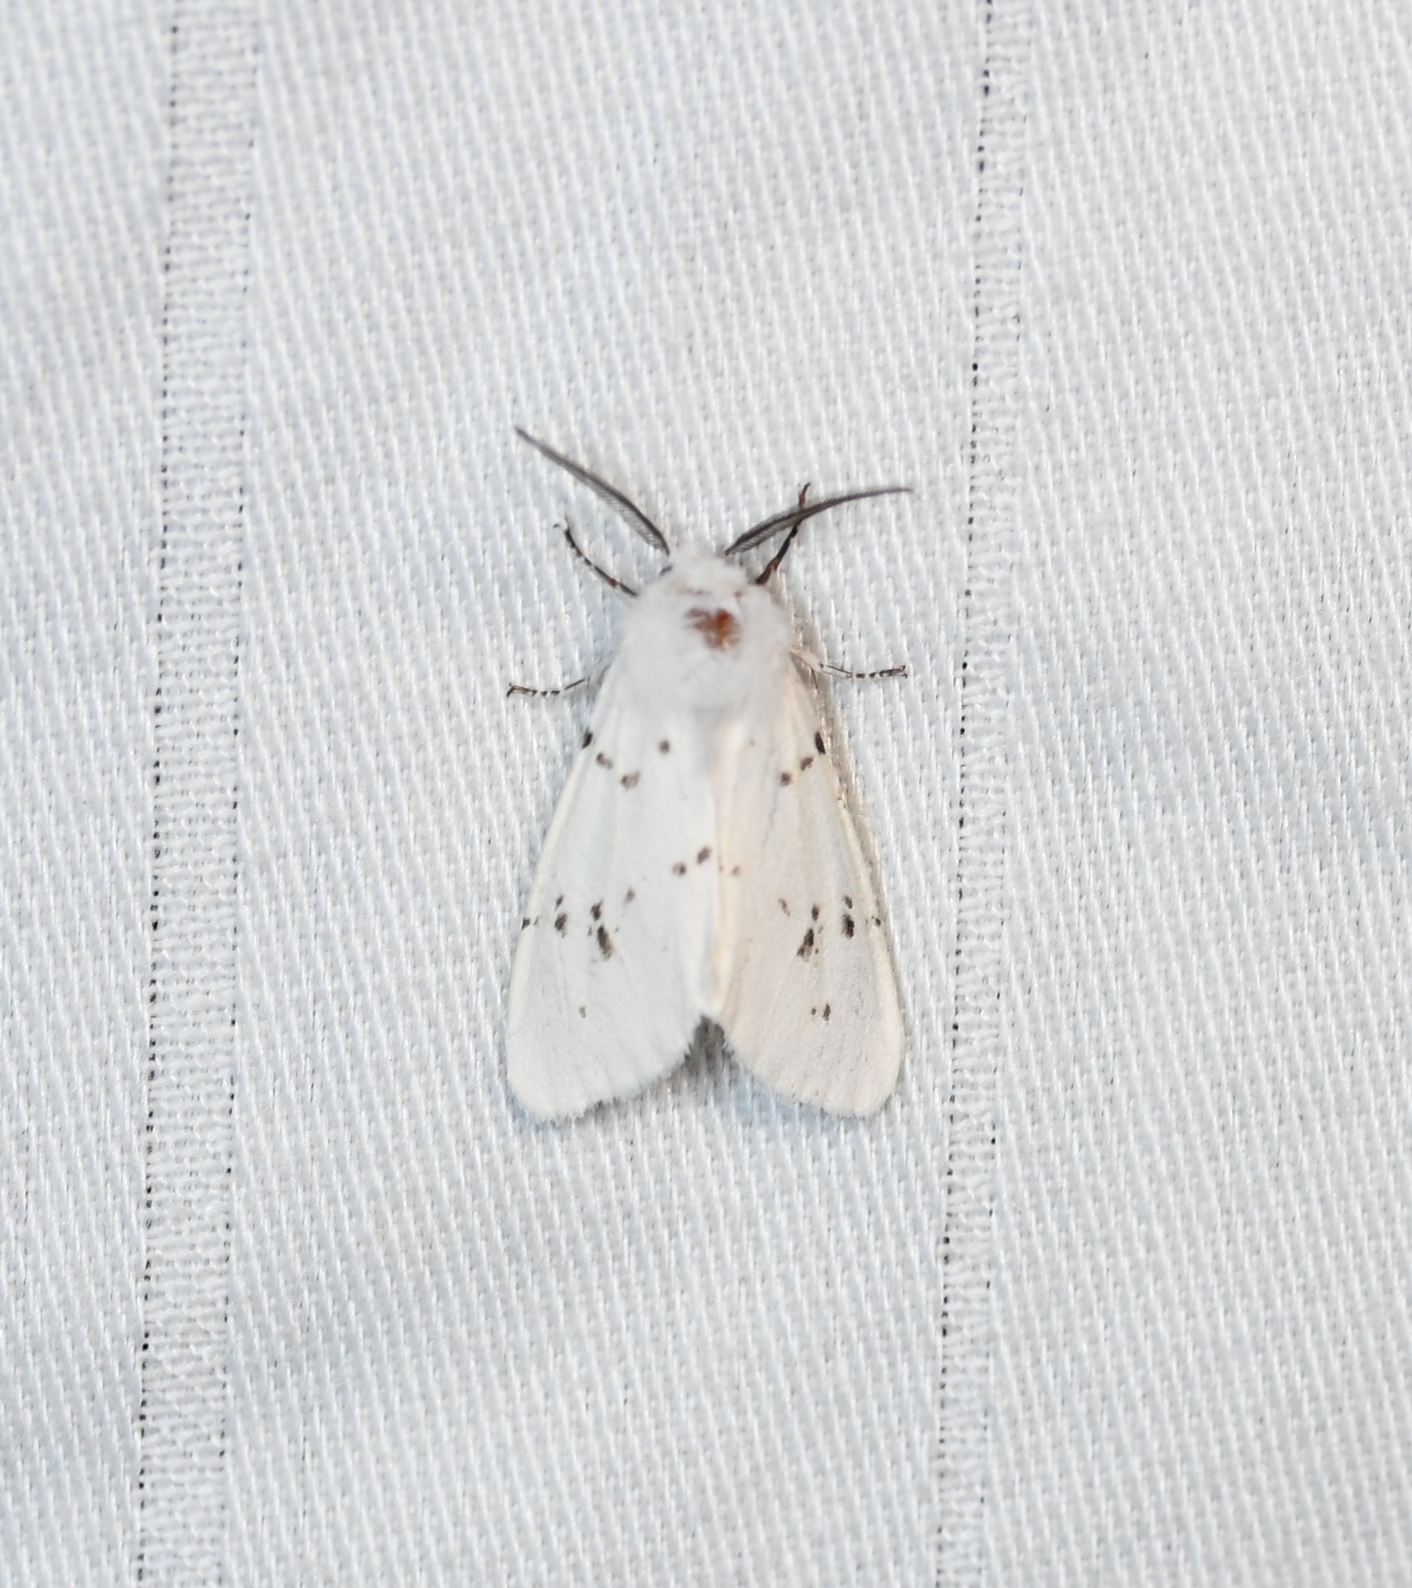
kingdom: Animalia
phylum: Arthropoda
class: Insecta
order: Lepidoptera
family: Erebidae
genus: Hyphantria
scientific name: Hyphantria cunea
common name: American white moth
